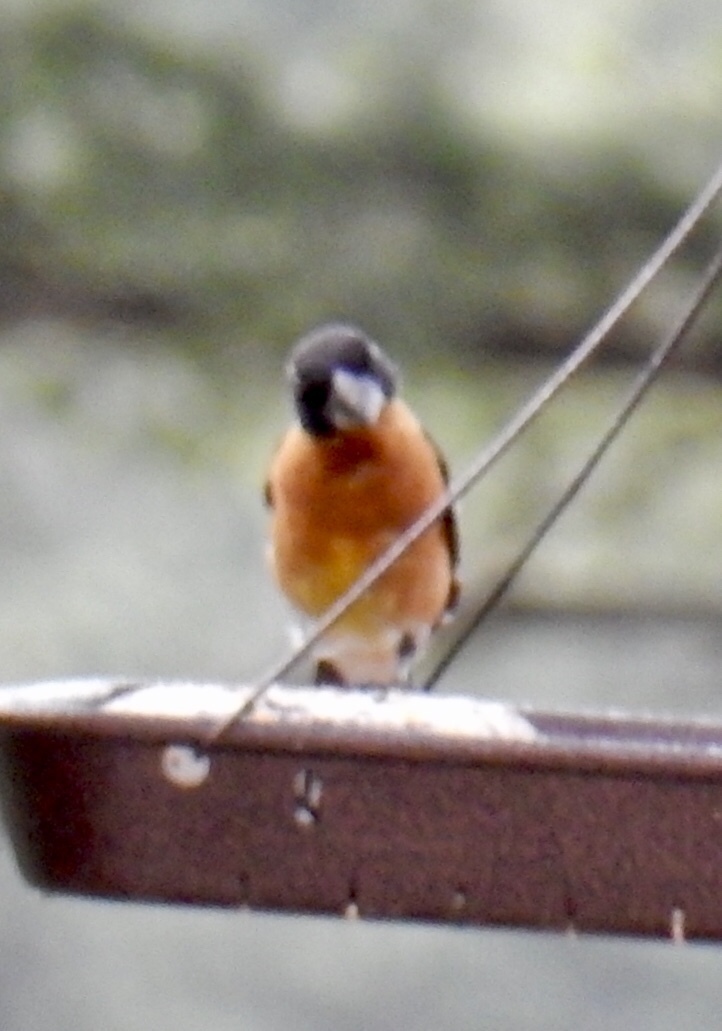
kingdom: Animalia
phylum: Chordata
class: Aves
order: Passeriformes
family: Cardinalidae
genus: Pheucticus
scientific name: Pheucticus melanocephalus
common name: Black-headed grosbeak
